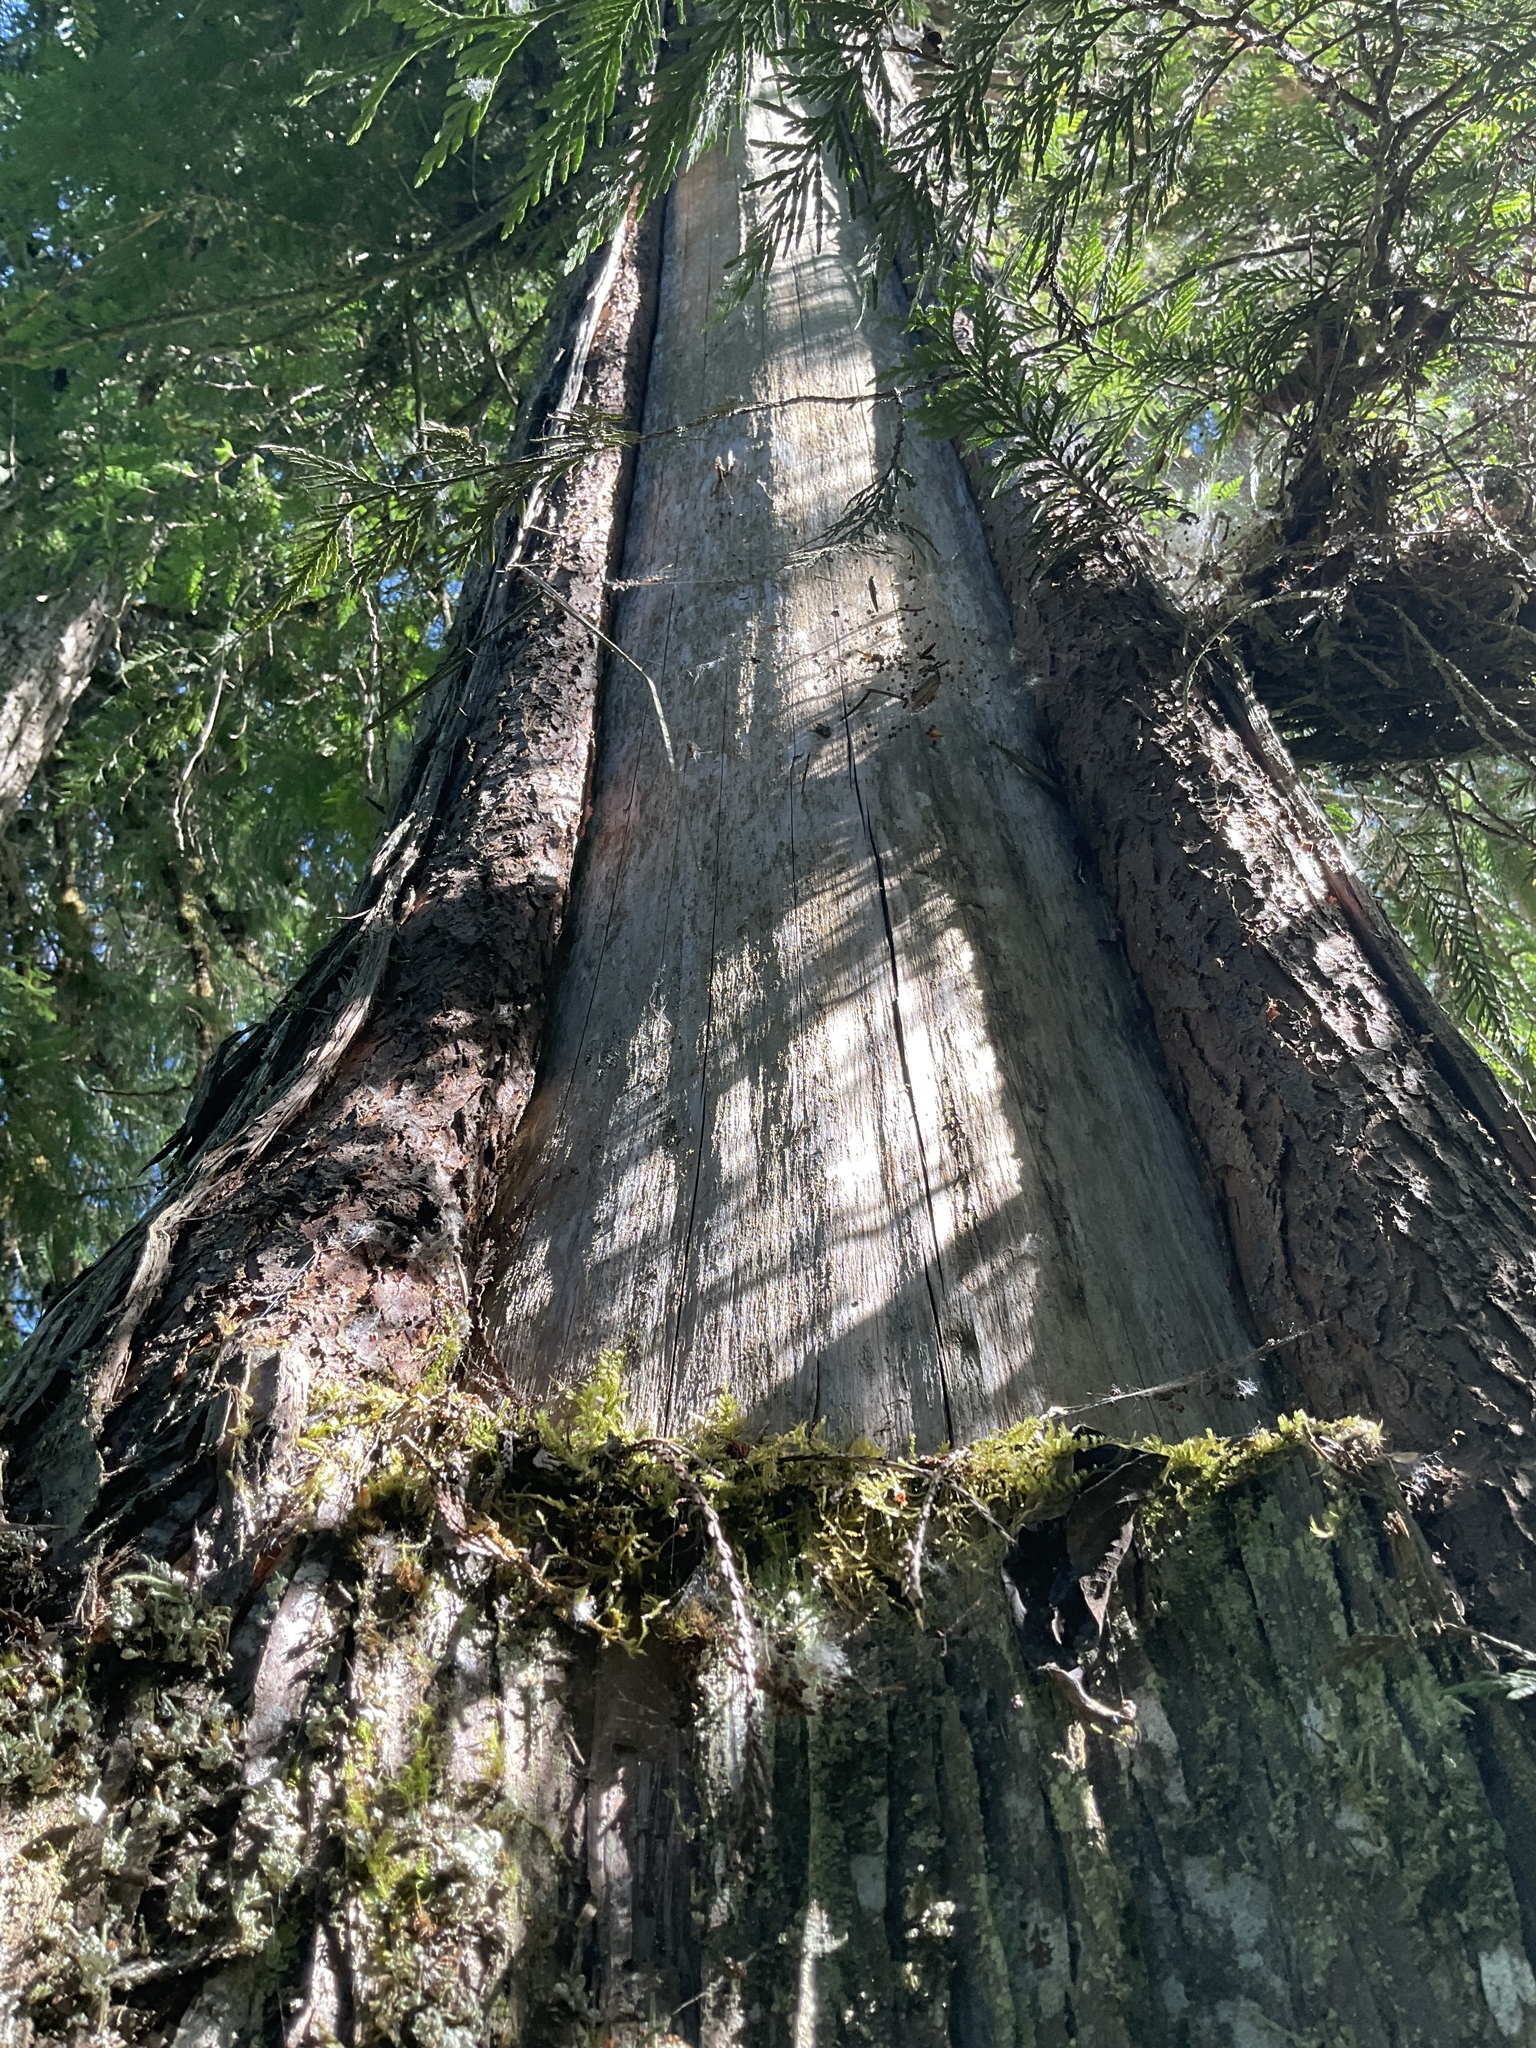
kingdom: Plantae
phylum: Tracheophyta
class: Pinopsida
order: Pinales
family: Cupressaceae
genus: Thuja
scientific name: Thuja plicata
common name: Western red-cedar
